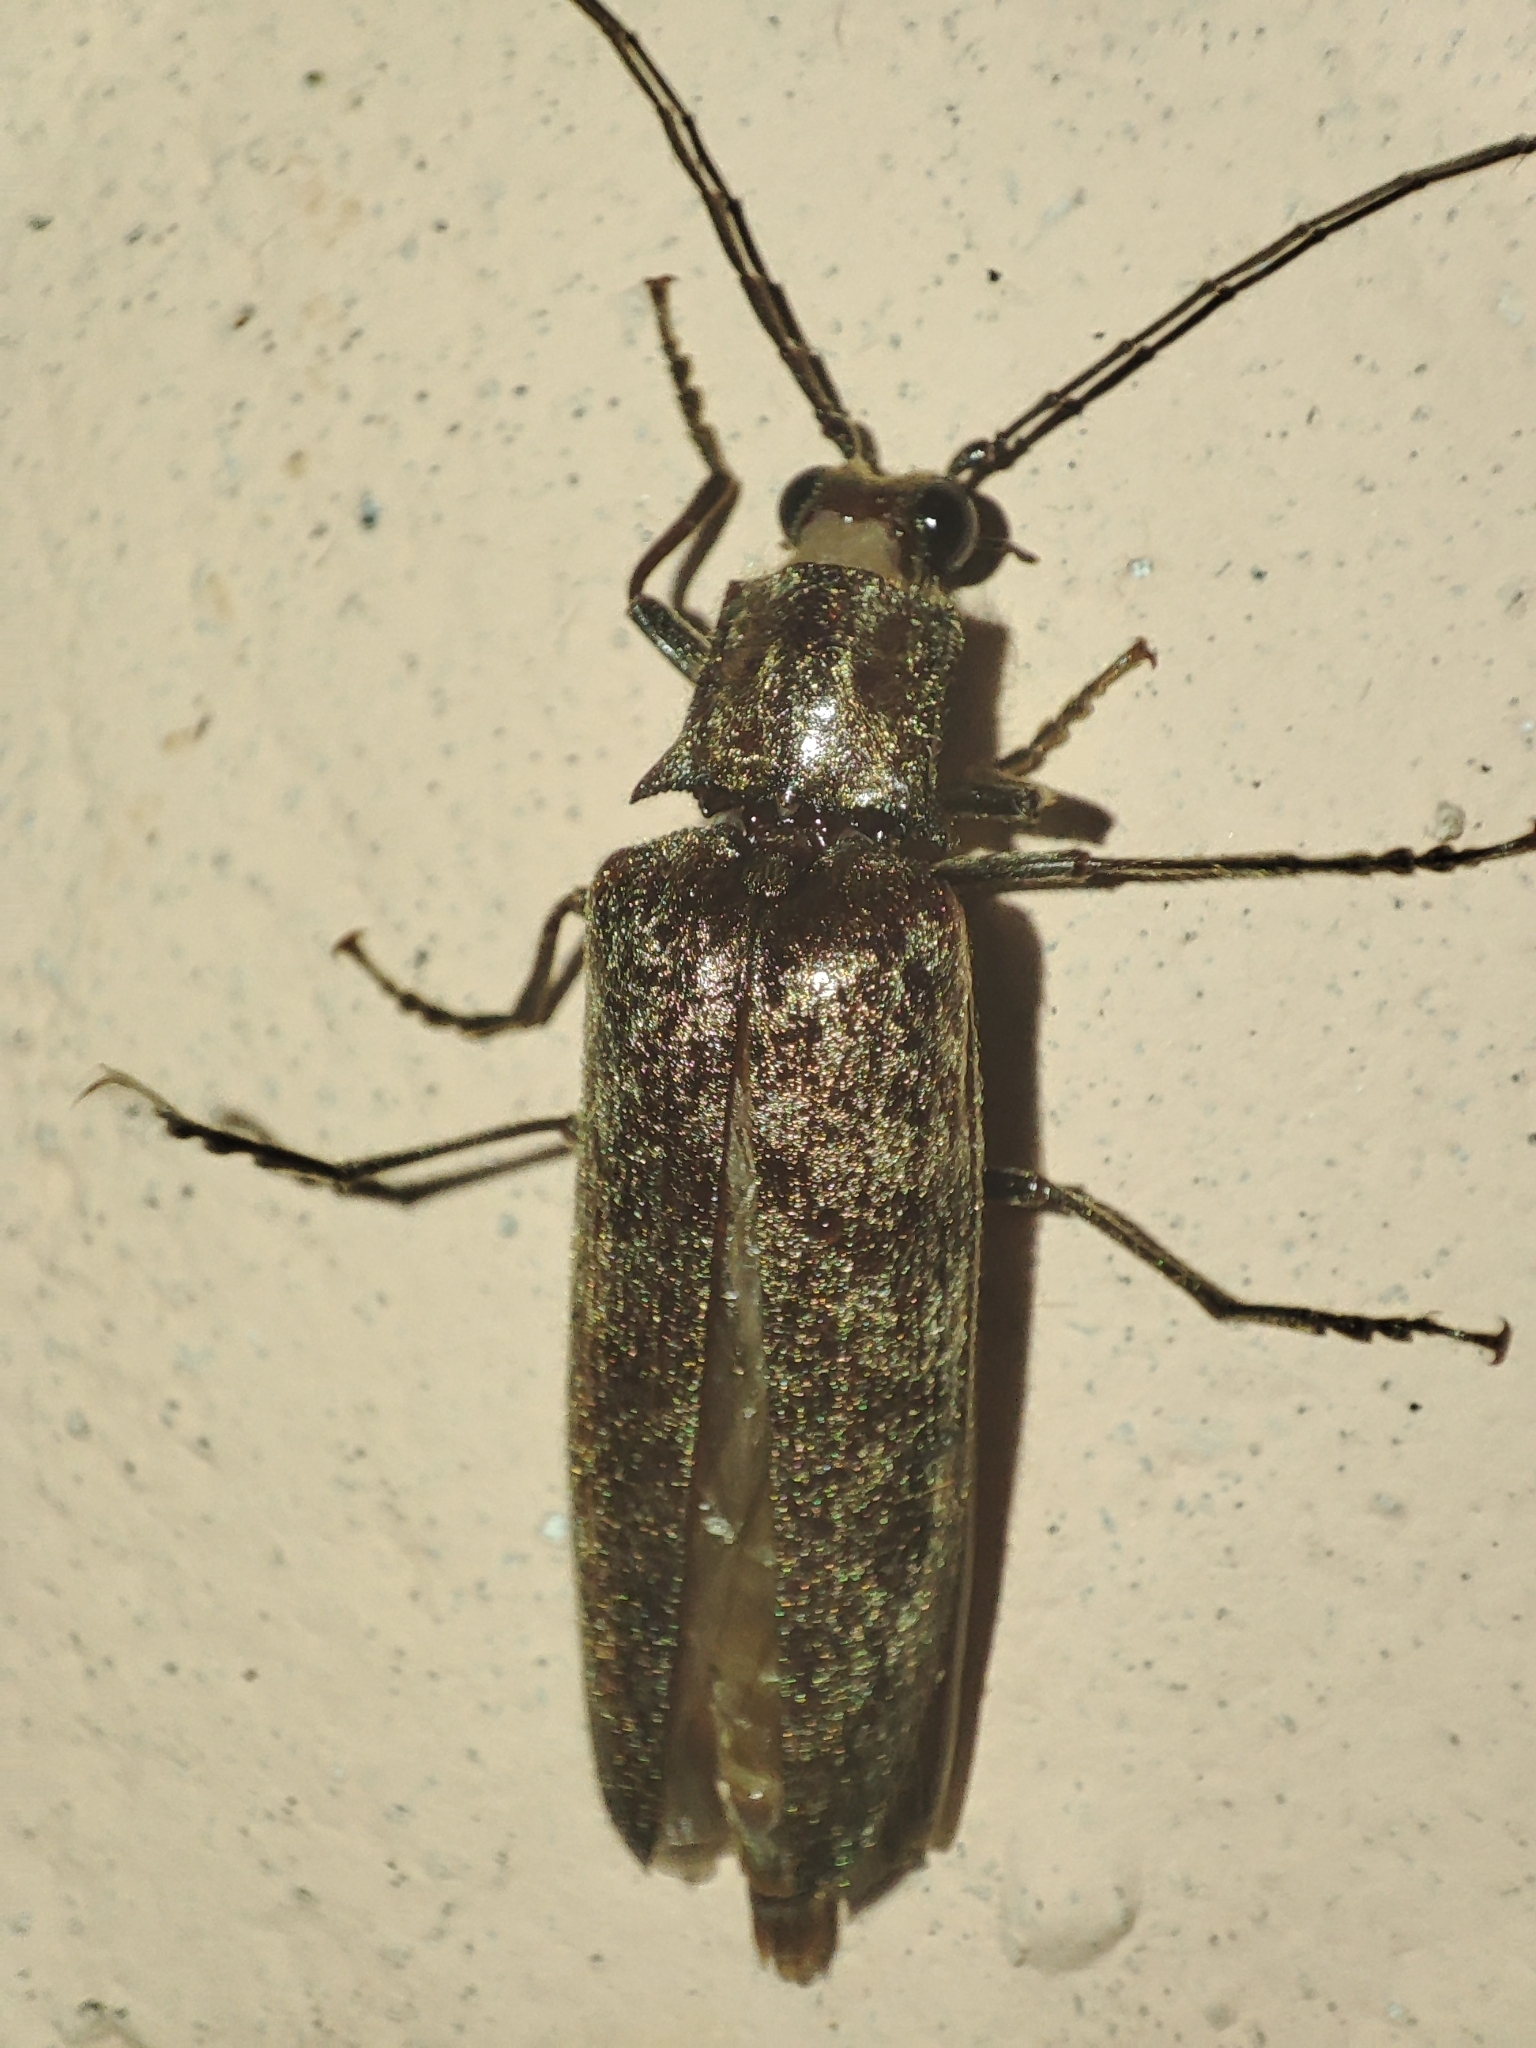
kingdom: Animalia
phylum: Arthropoda
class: Insecta
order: Coleoptera
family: Elateridae
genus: Pectocera
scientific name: Pectocera
